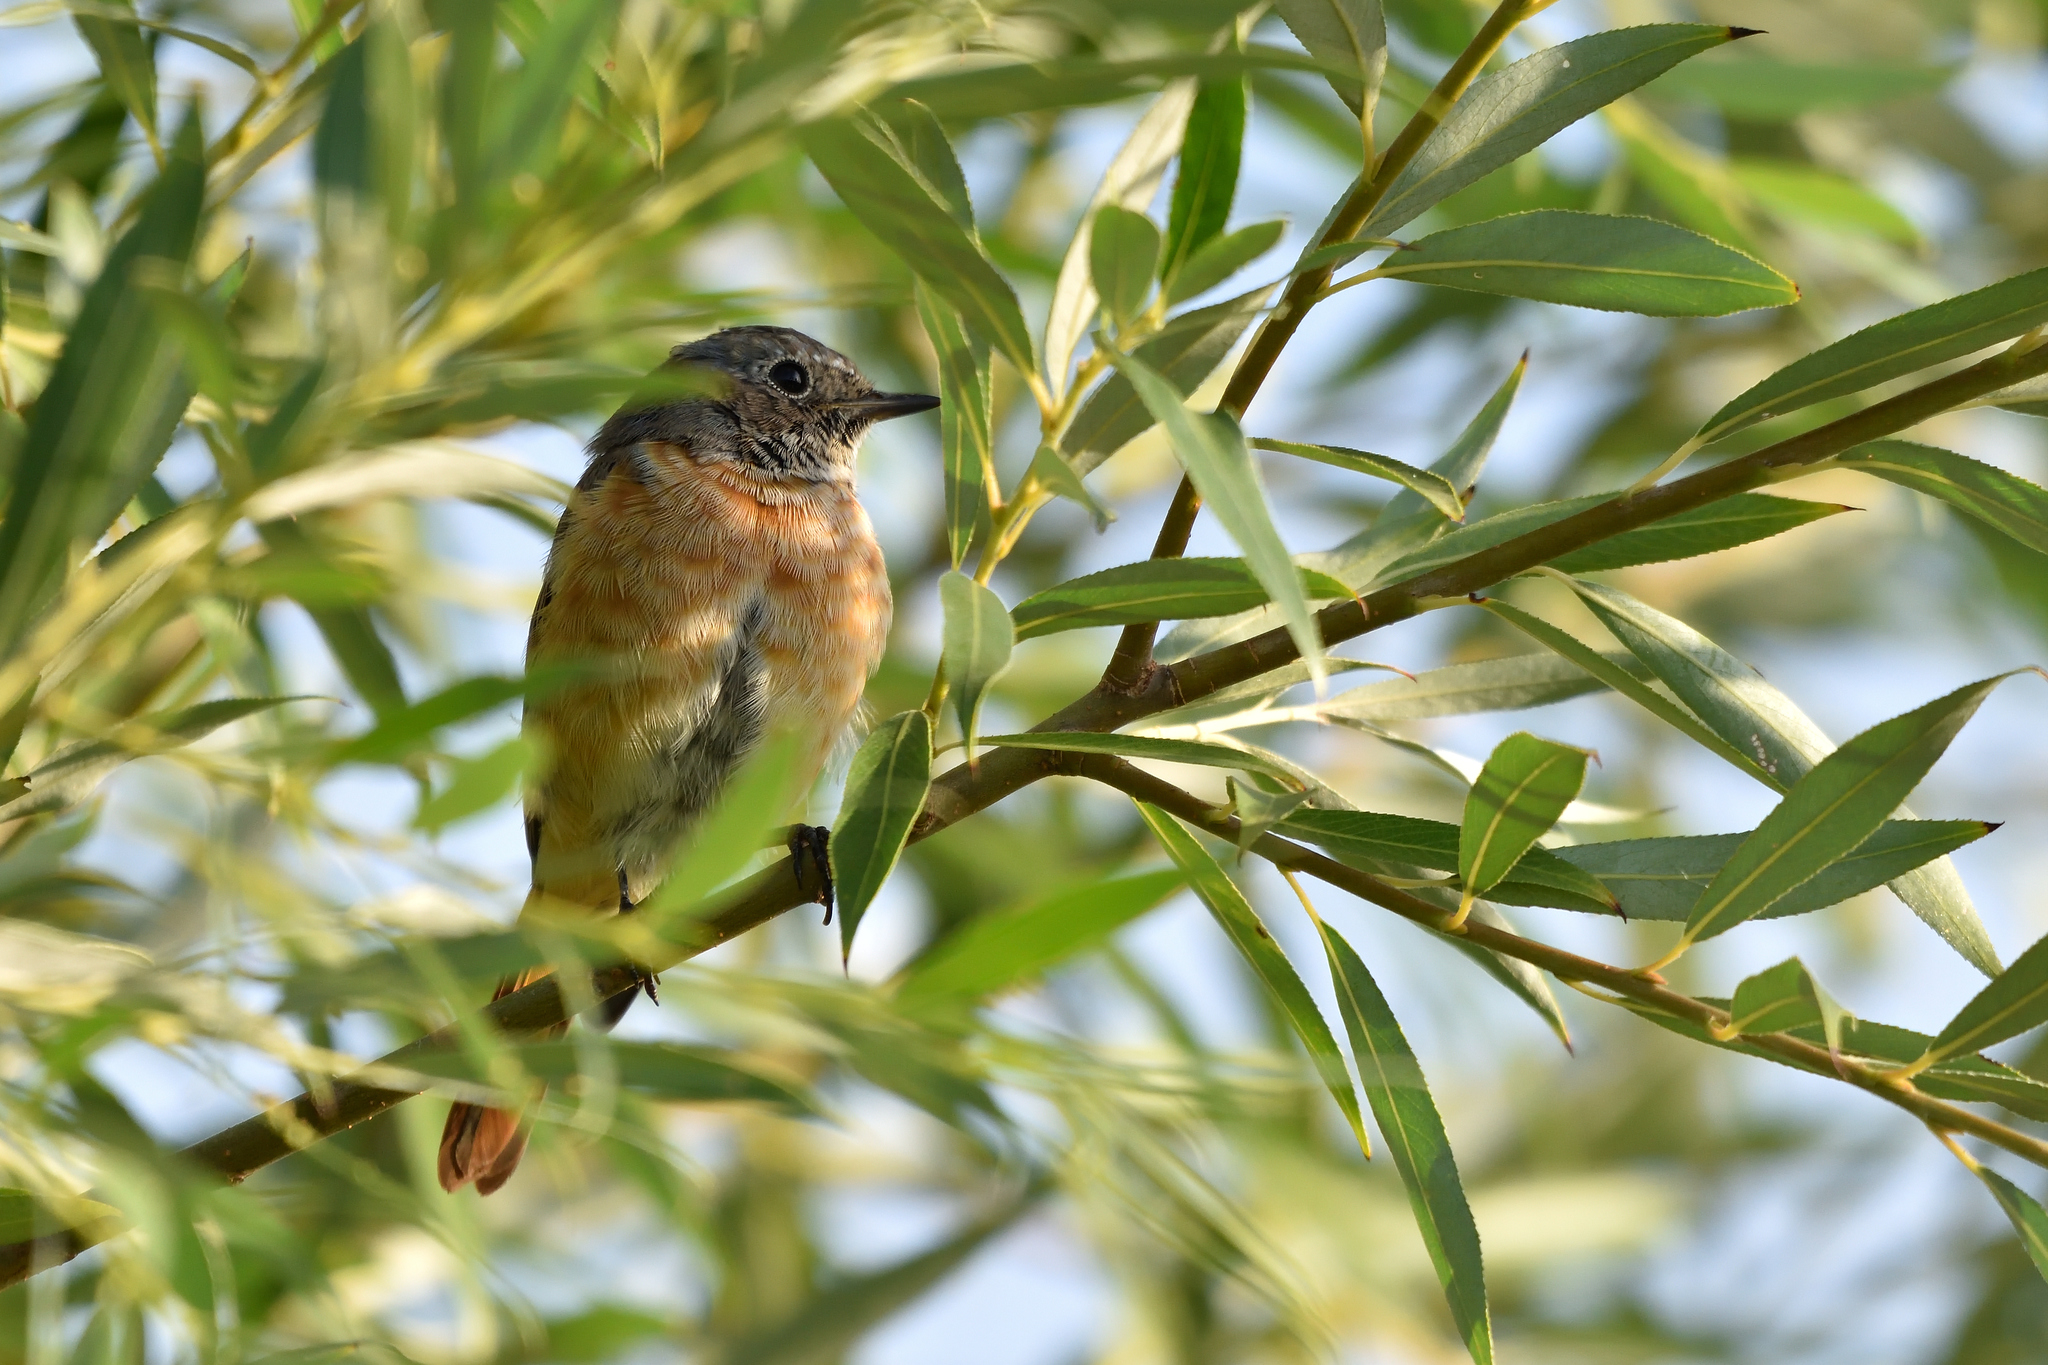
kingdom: Animalia
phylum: Chordata
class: Aves
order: Passeriformes
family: Muscicapidae
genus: Phoenicurus
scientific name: Phoenicurus phoenicurus
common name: Common redstart
